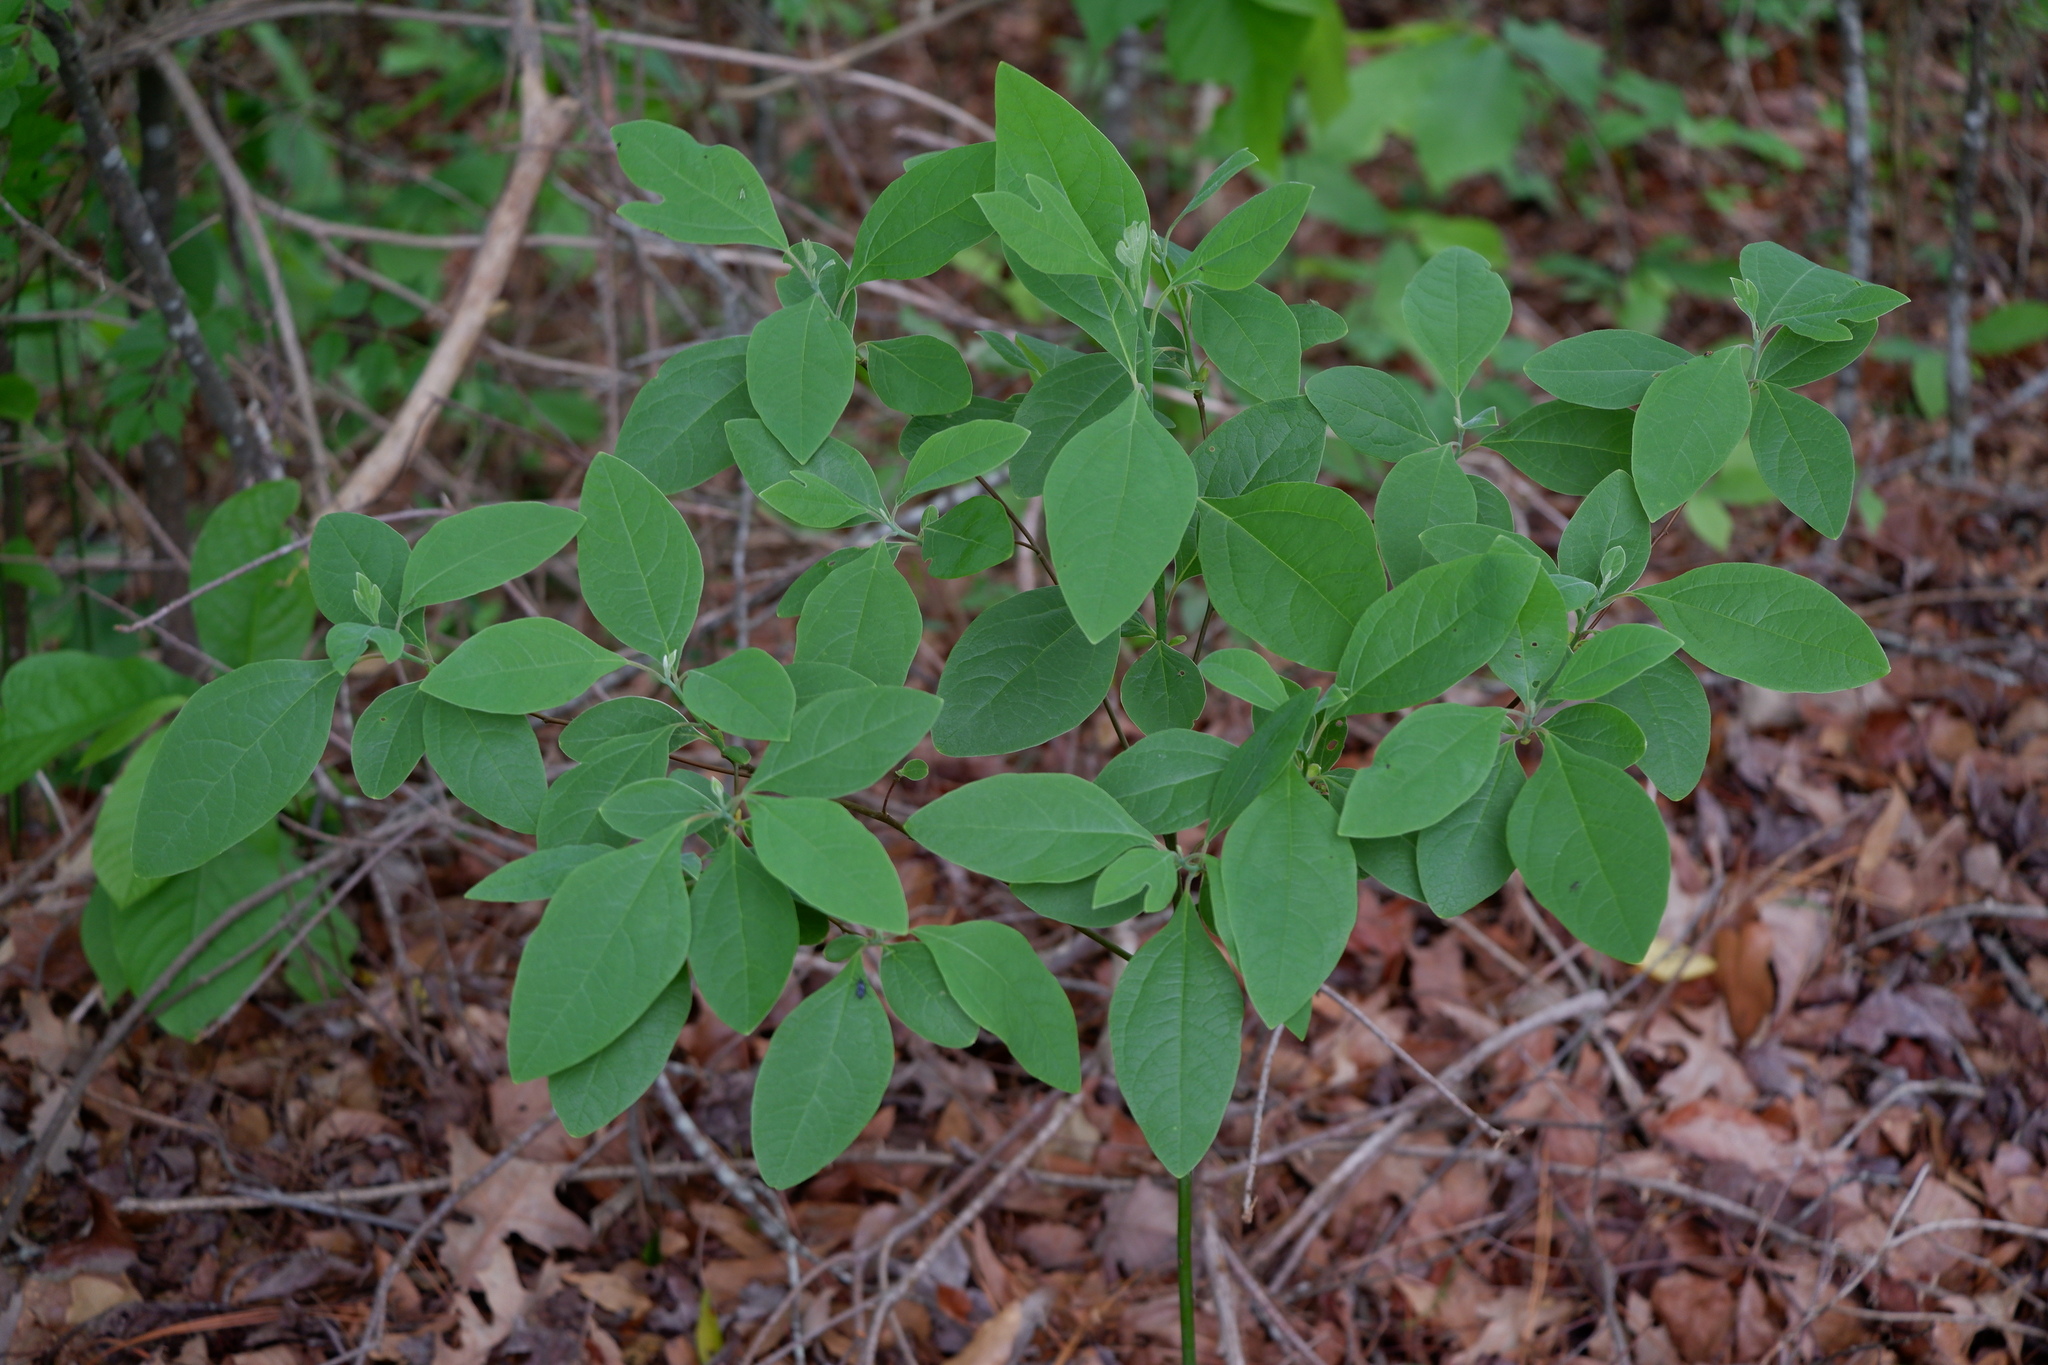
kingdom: Plantae
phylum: Tracheophyta
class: Magnoliopsida
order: Laurales
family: Lauraceae
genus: Sassafras
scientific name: Sassafras albidum
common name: Sassafras
